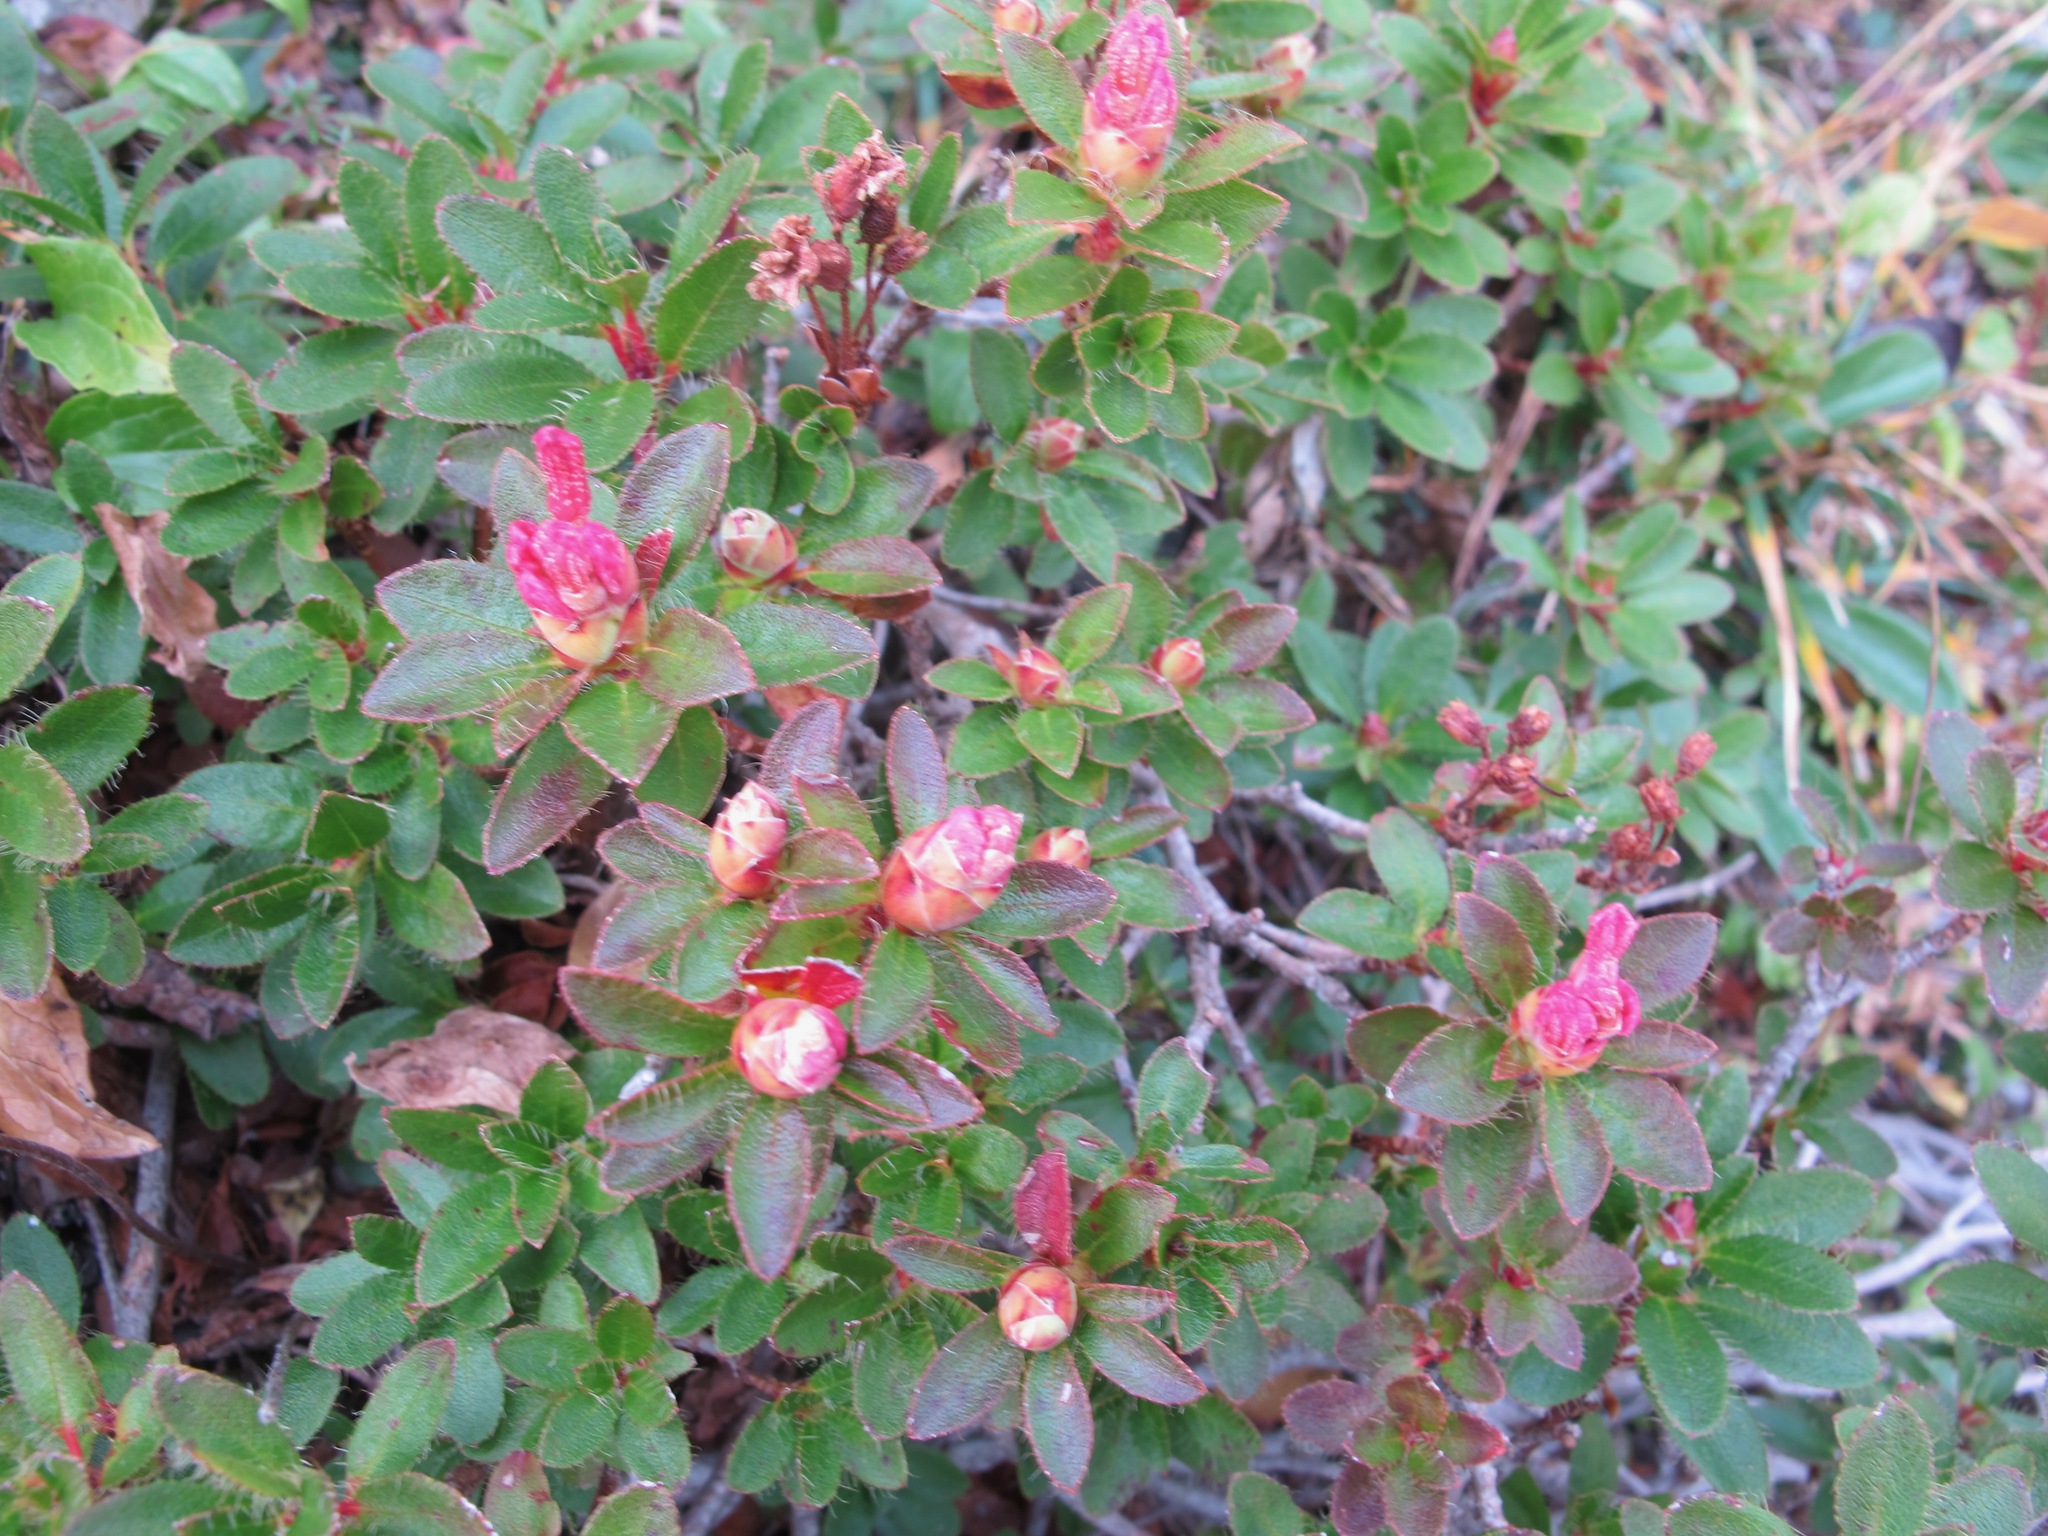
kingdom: Plantae
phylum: Tracheophyta
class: Magnoliopsida
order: Ericales
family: Ericaceae
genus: Rhododendron
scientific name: Rhododendron hirsutum
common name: Hairy alpenrose
